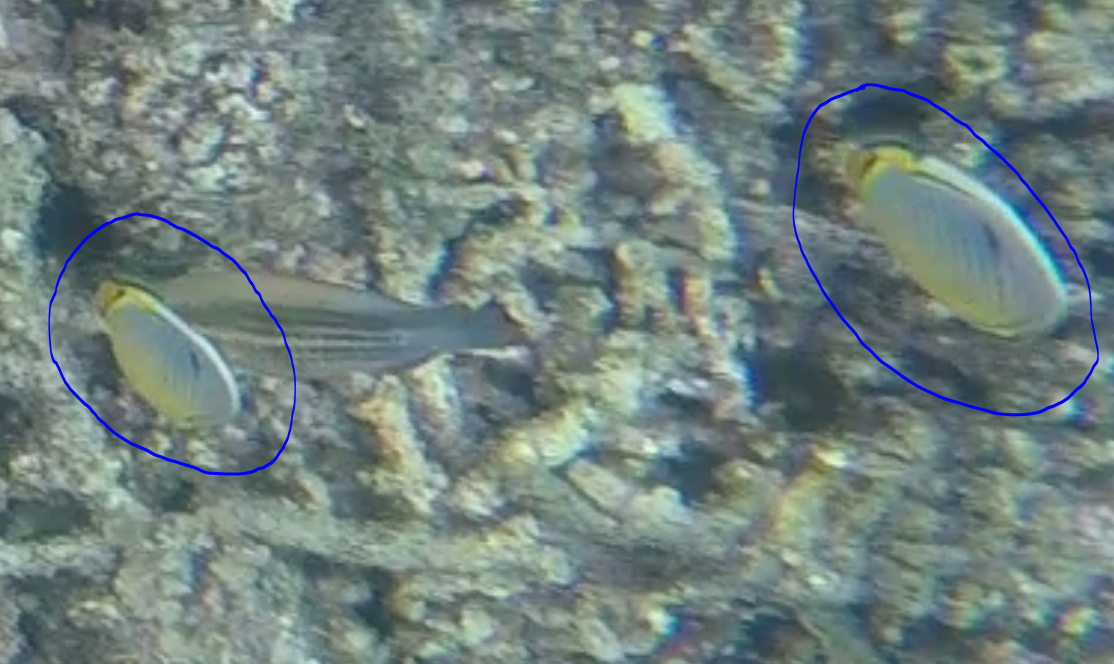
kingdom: Animalia
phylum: Chordata
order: Perciformes
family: Chaetodontidae
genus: Chaetodon
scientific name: Chaetodon trifasciatus
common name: Redfin butterflyfish
